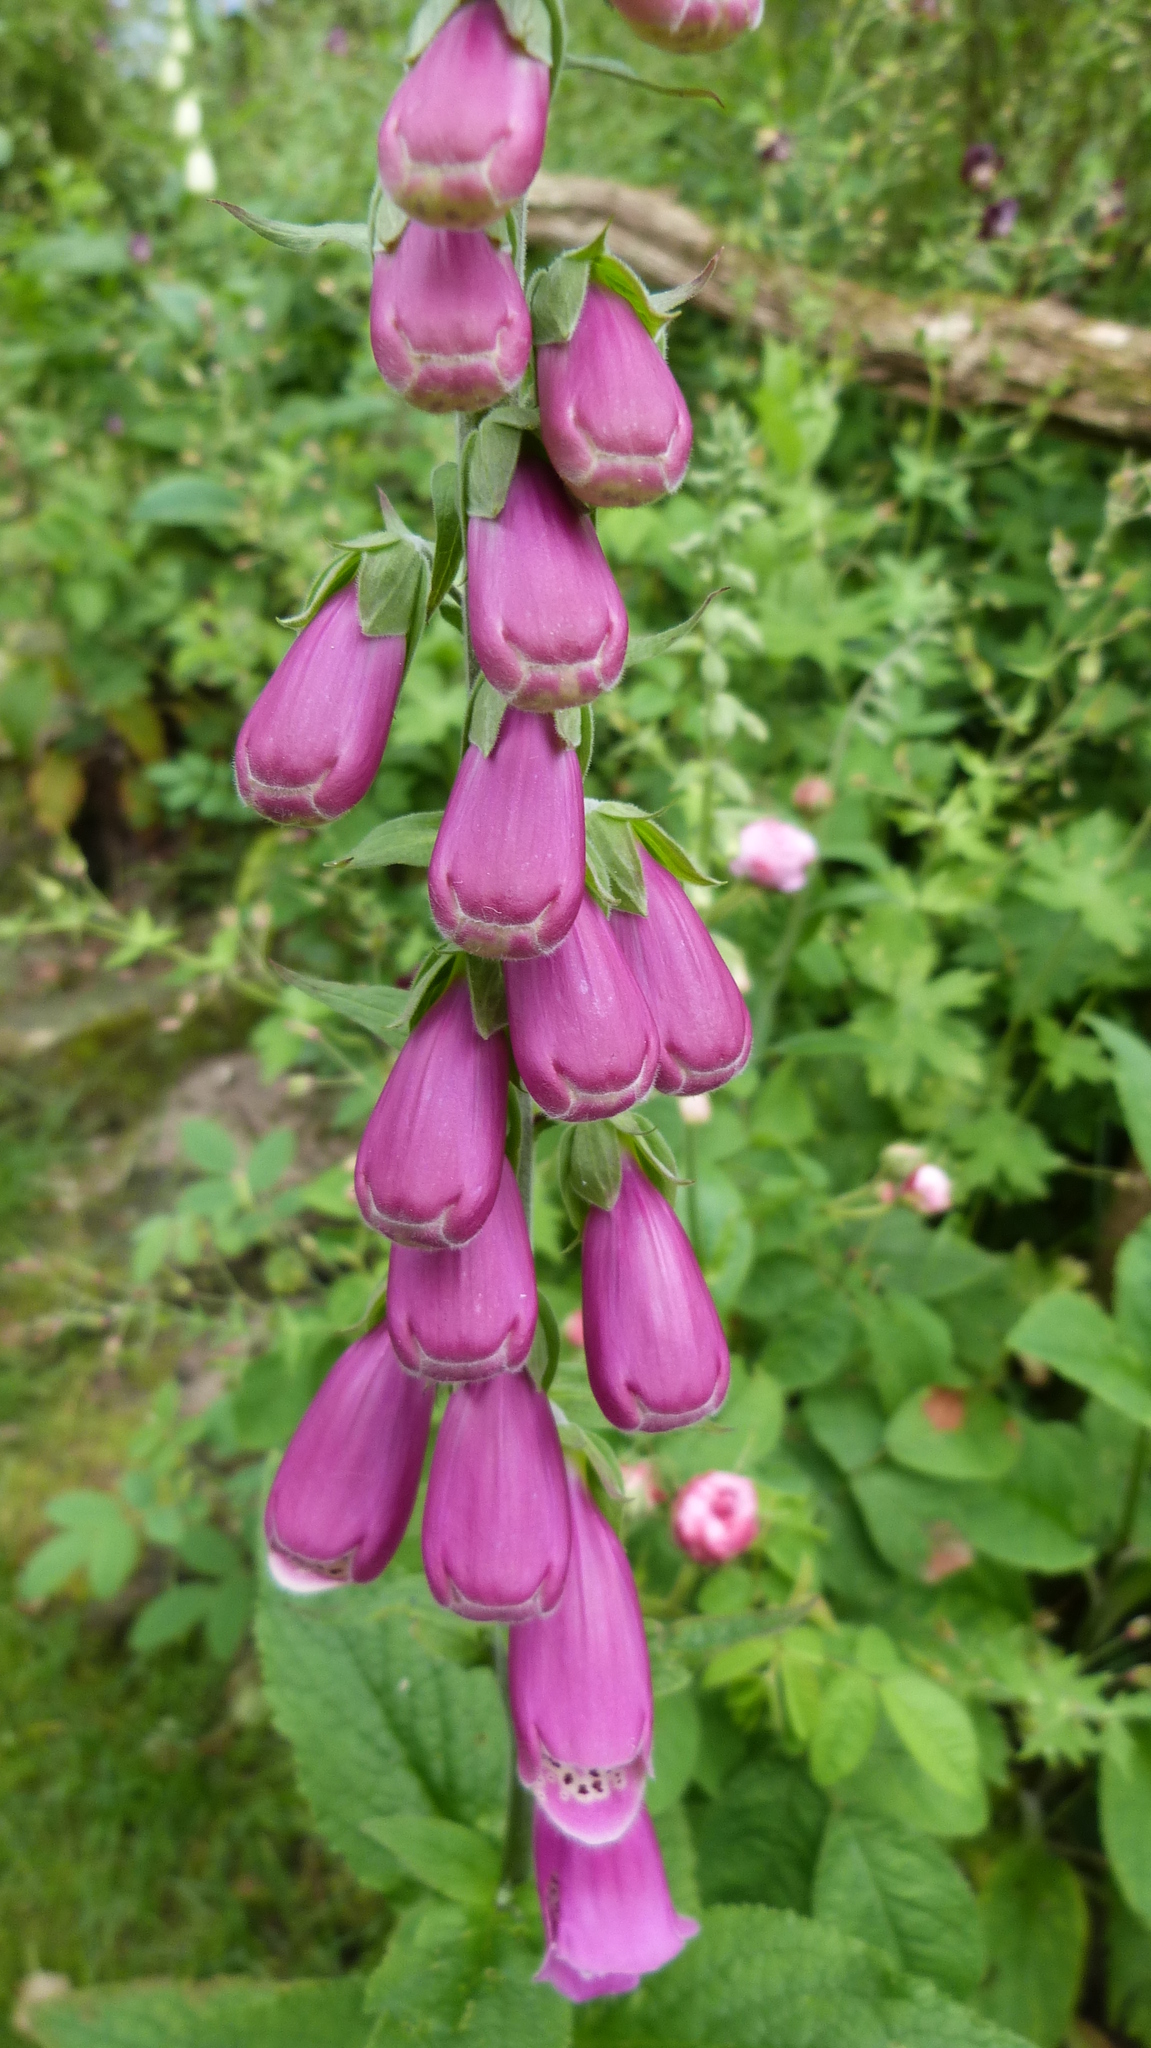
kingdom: Plantae
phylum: Tracheophyta
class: Magnoliopsida
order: Lamiales
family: Plantaginaceae
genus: Digitalis
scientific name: Digitalis purpurea
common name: Foxglove
